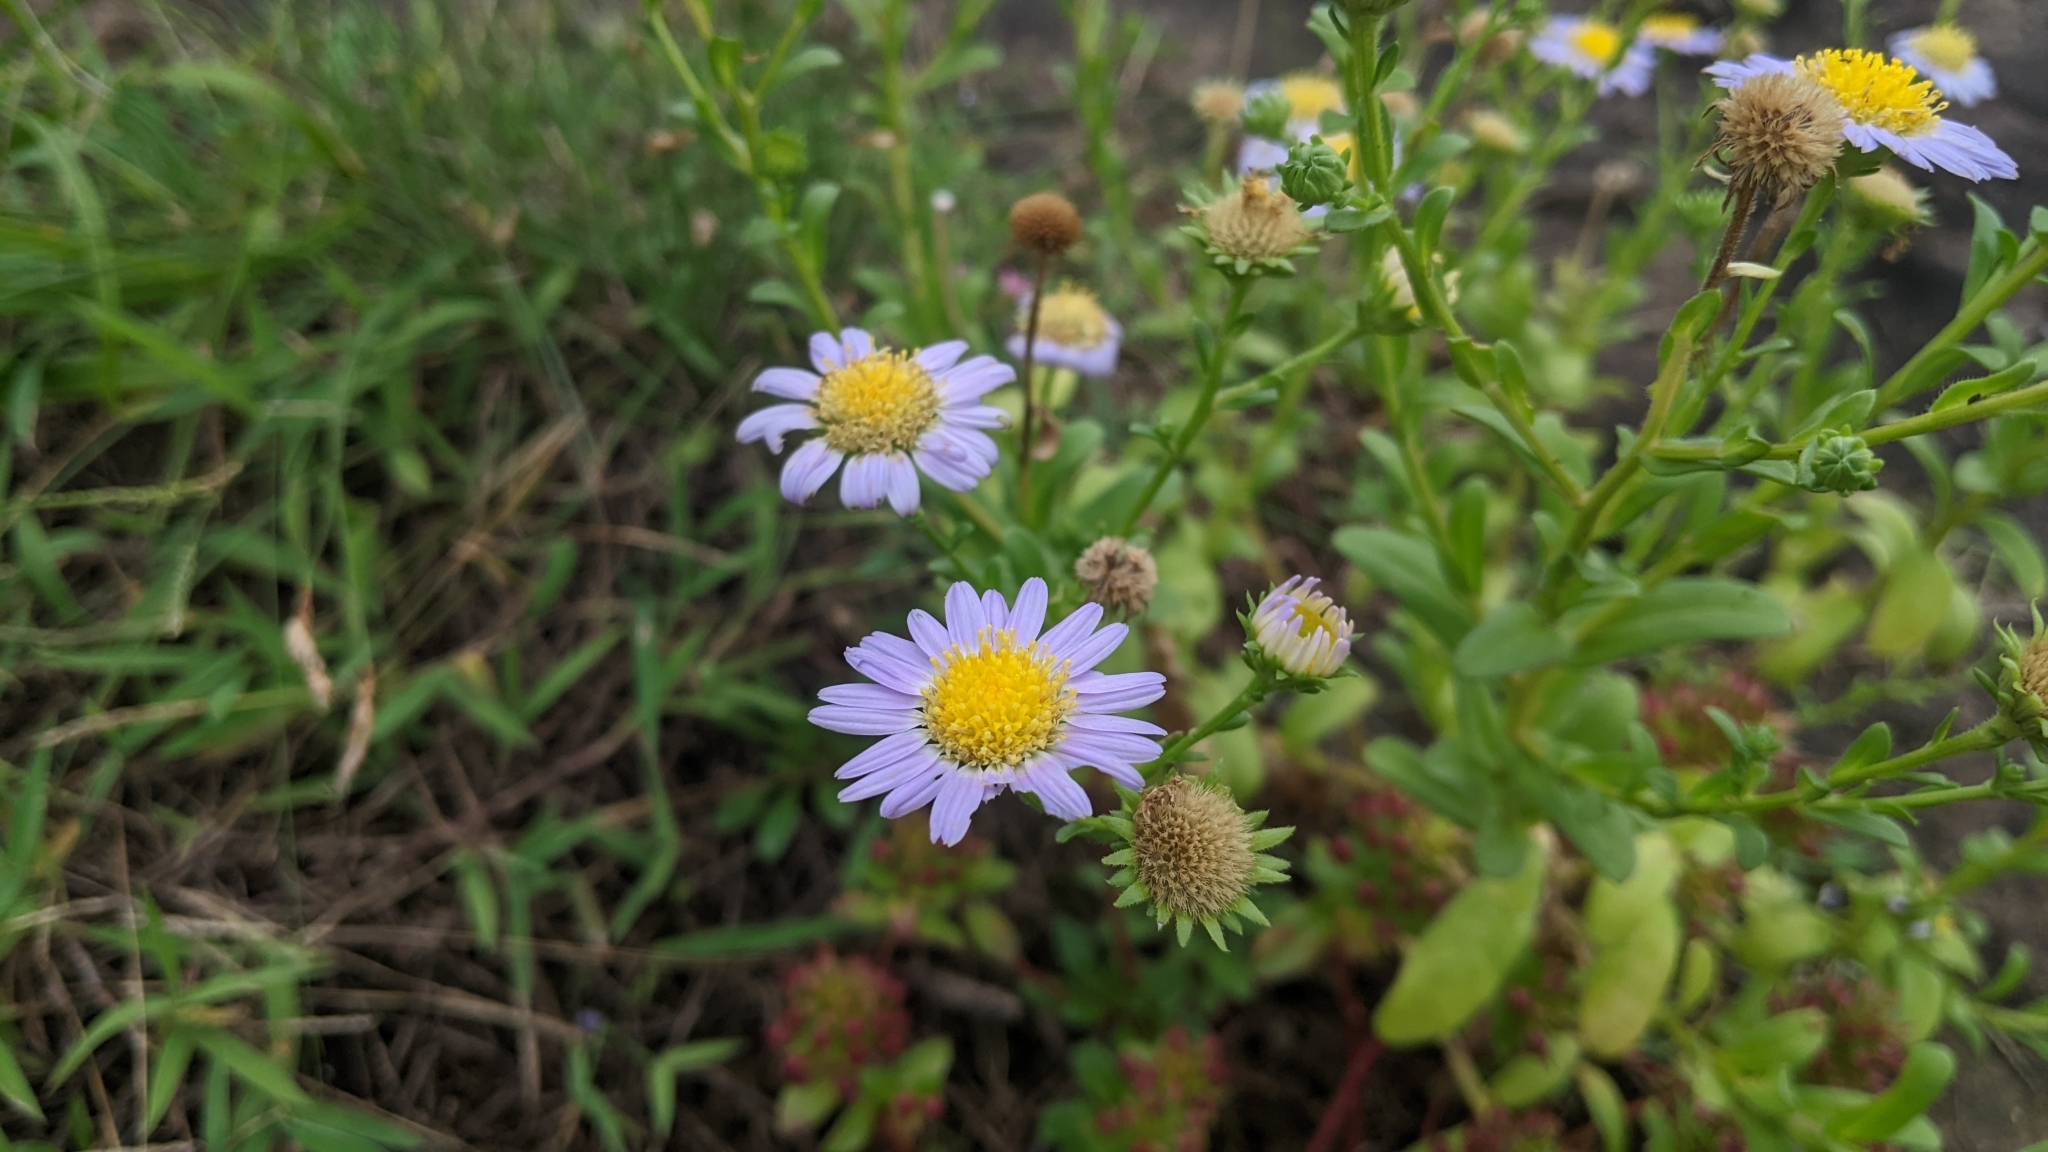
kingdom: Plantae
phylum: Tracheophyta
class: Magnoliopsida
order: Asterales
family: Asteraceae
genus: Heteropappus
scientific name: Heteropappus oldhamii
